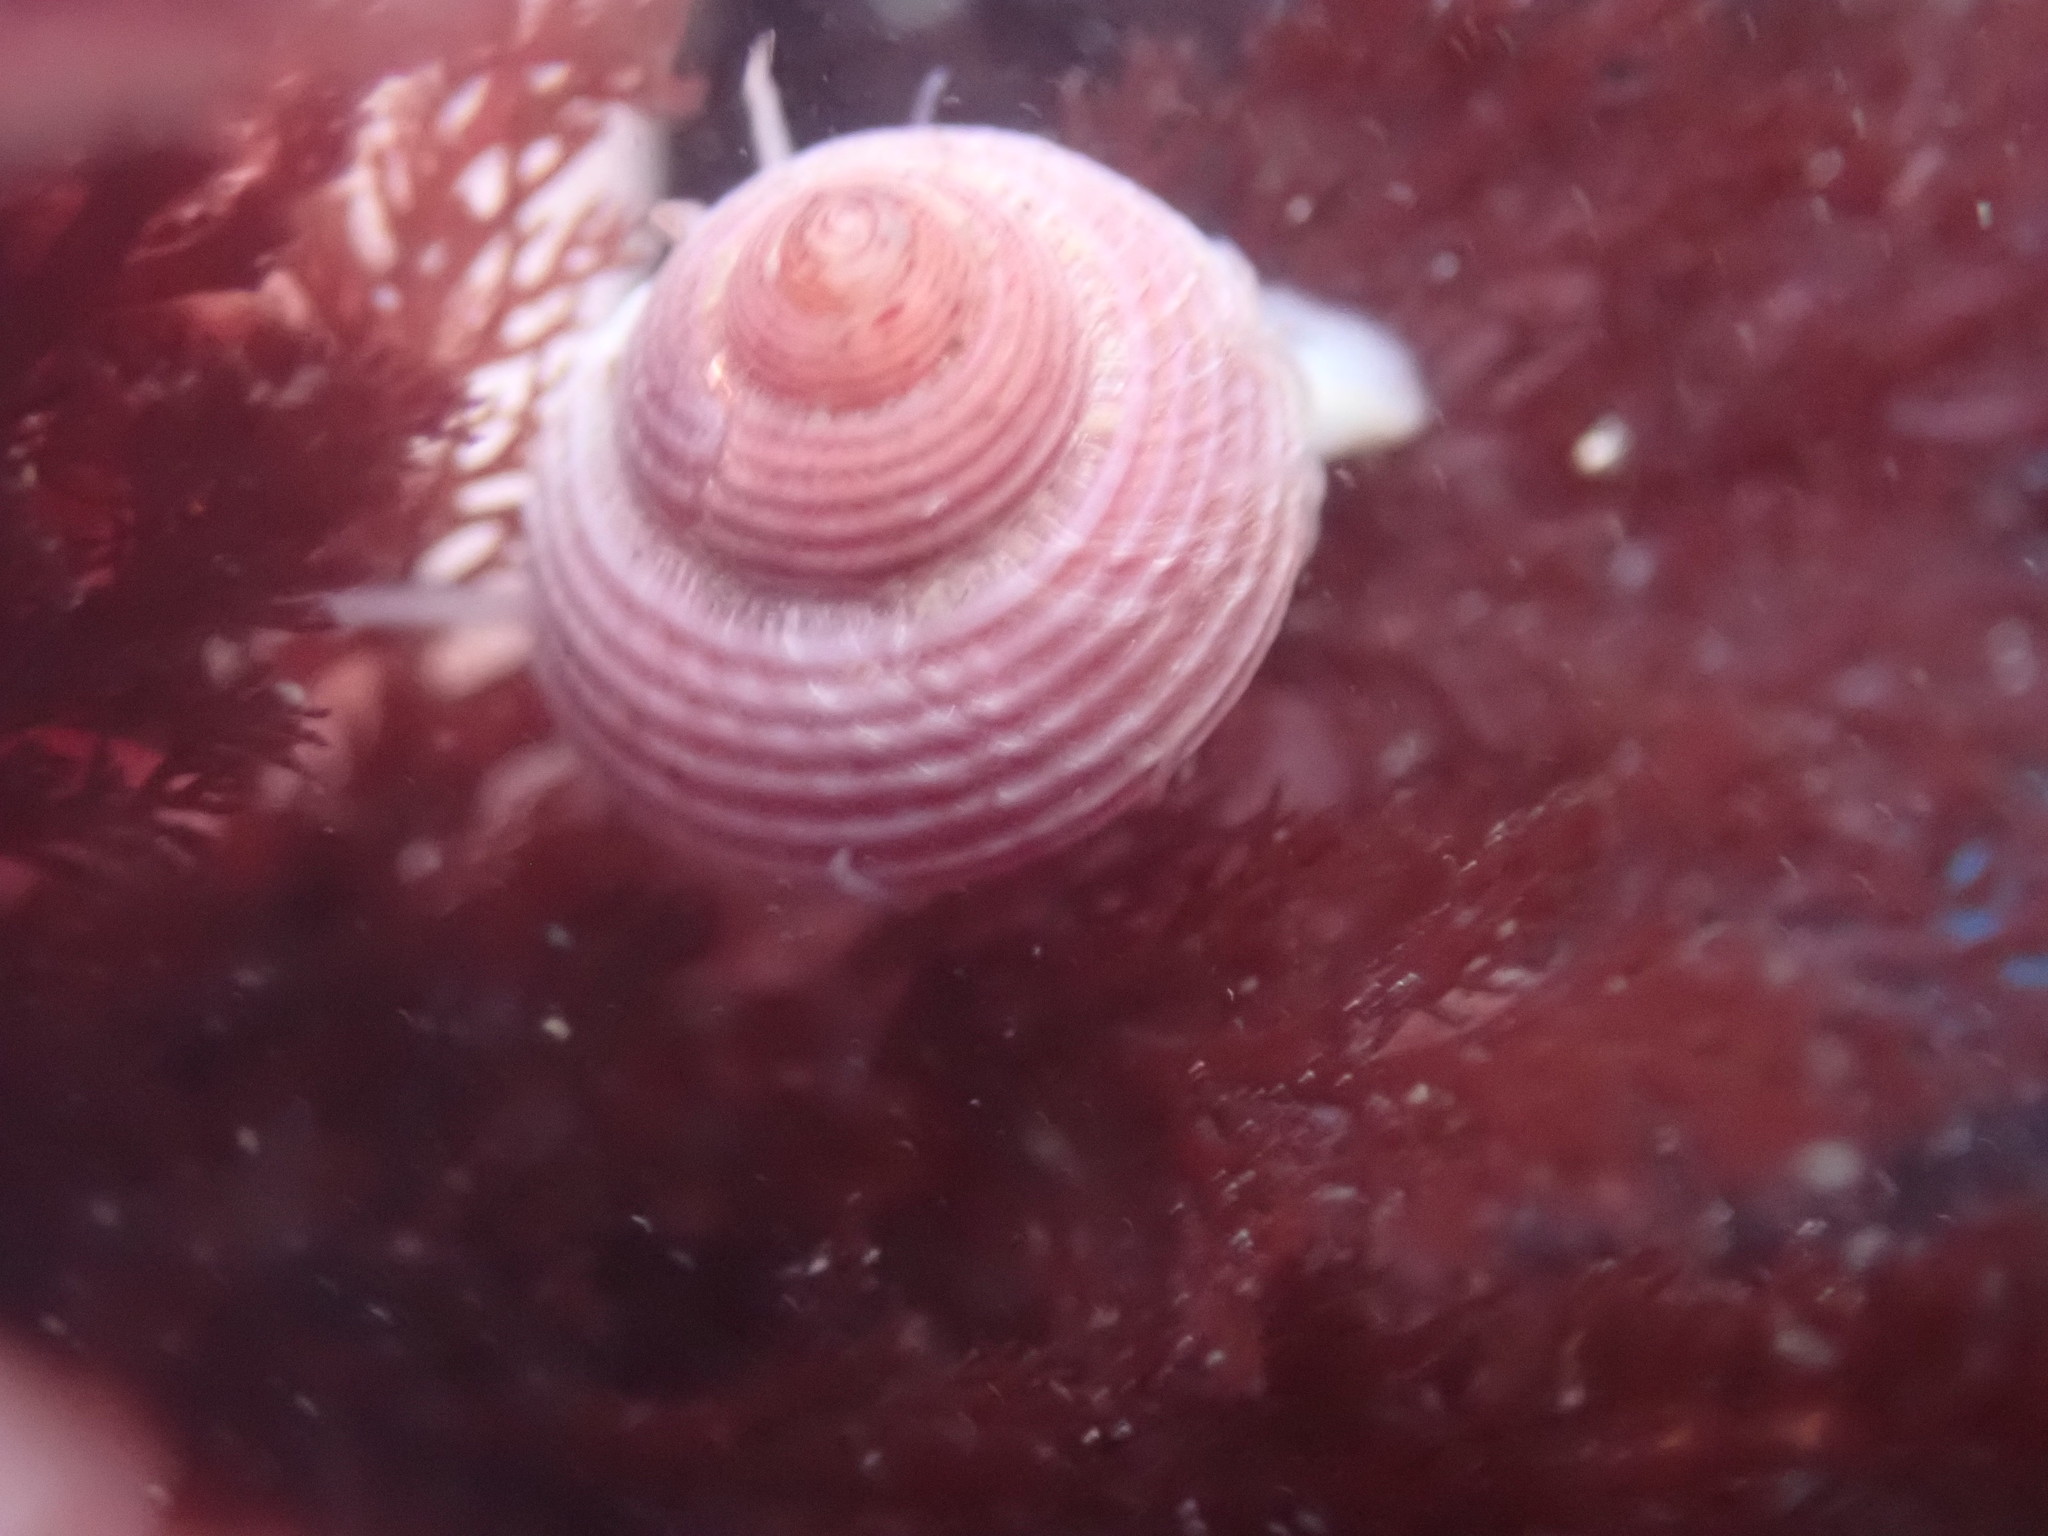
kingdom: Animalia
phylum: Mollusca
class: Gastropoda
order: Trochida
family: Margaritidae
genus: Margarites
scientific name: Margarites pupillus
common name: Puppet margarite
